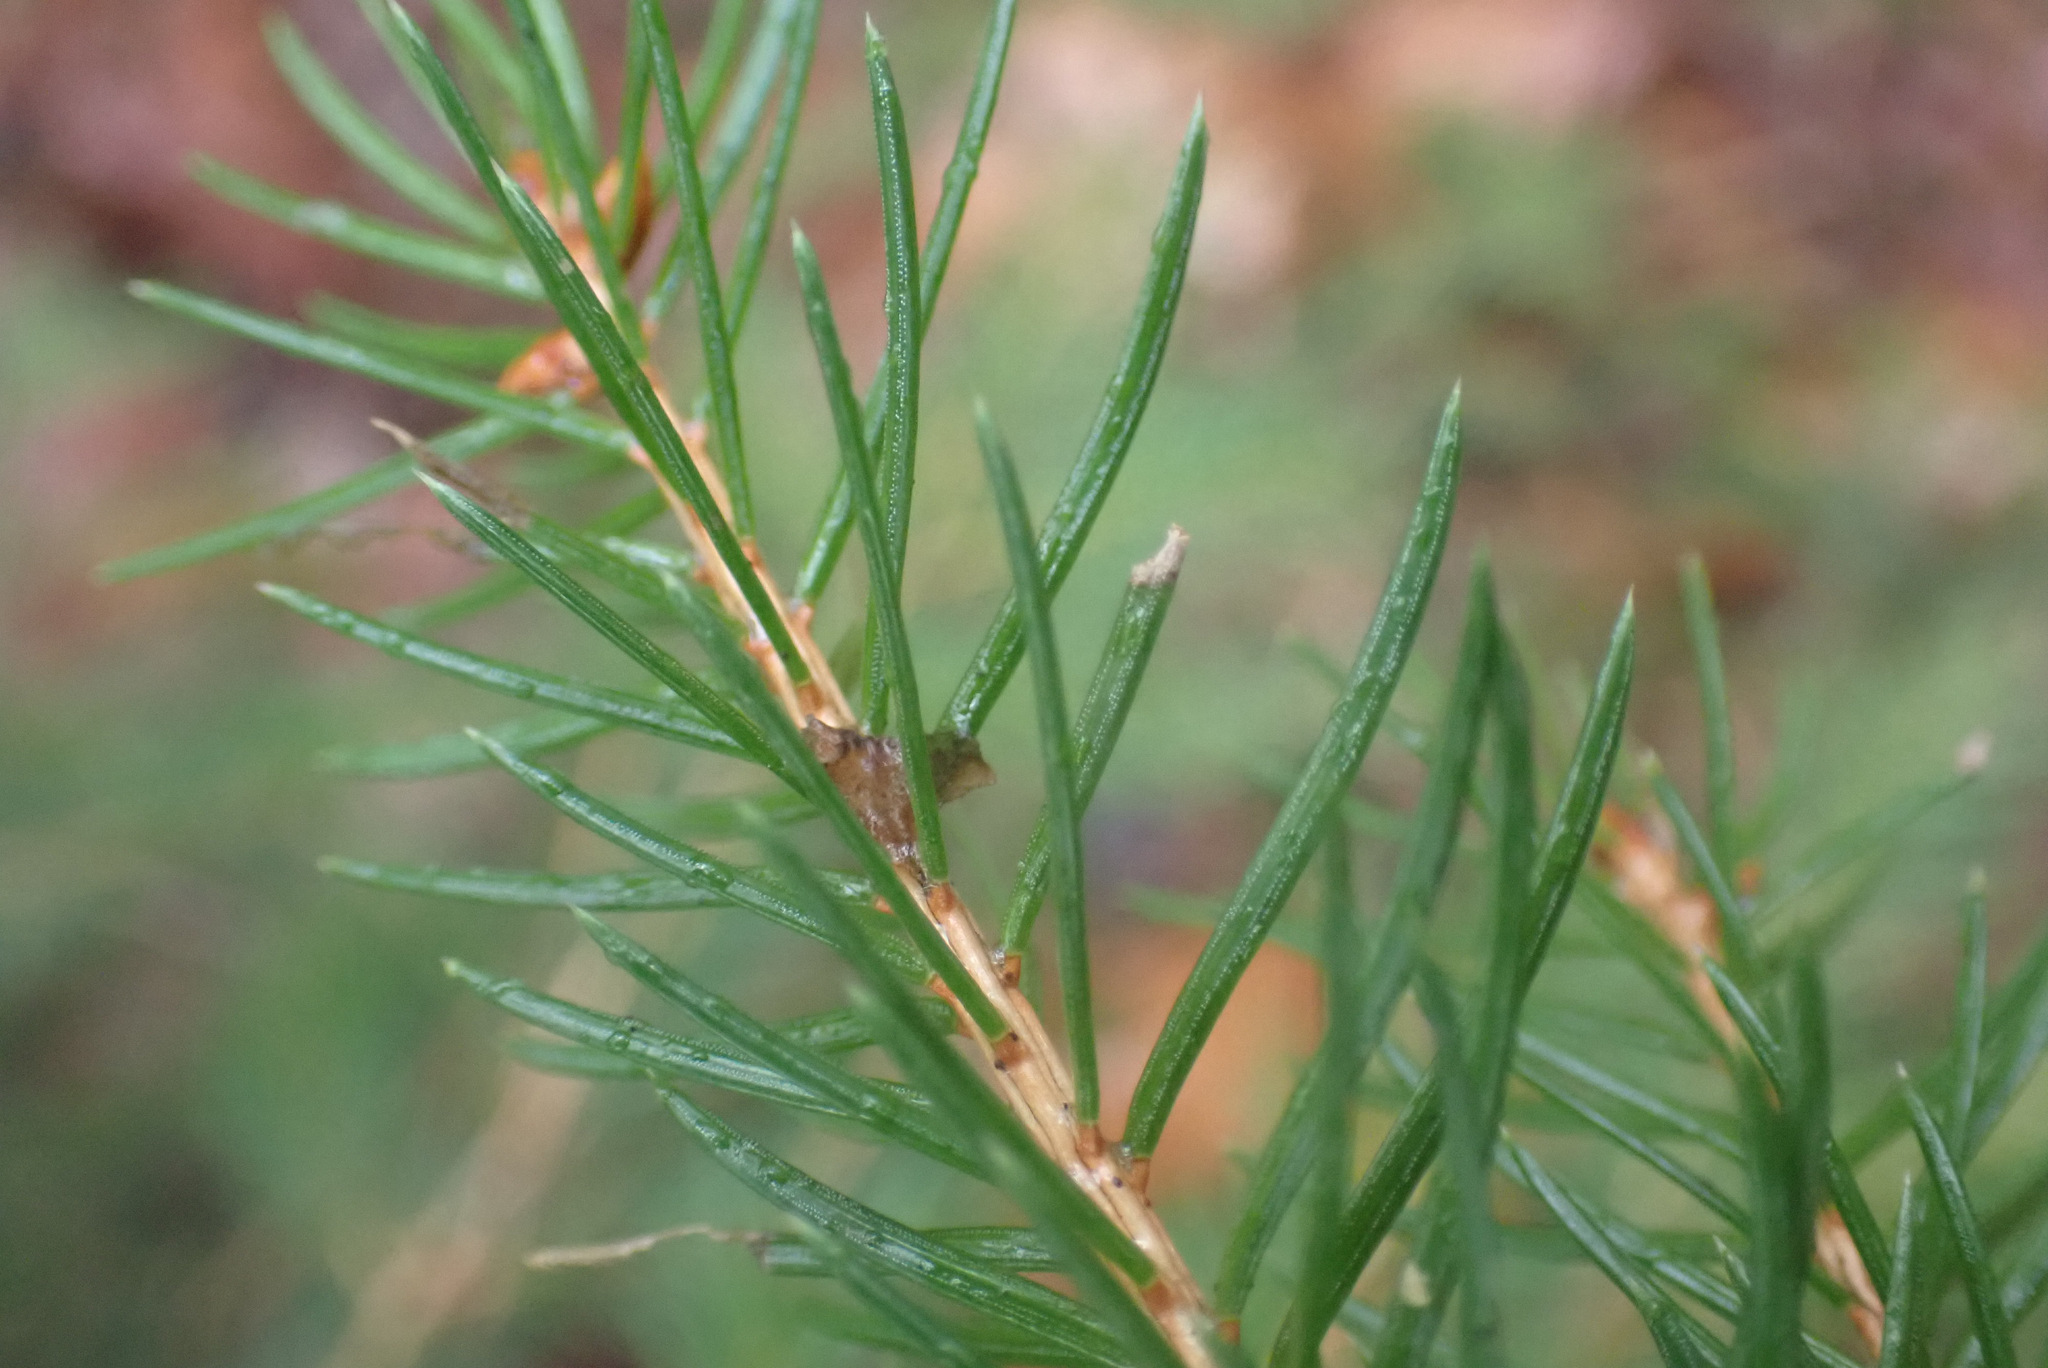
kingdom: Plantae
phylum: Tracheophyta
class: Pinopsida
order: Pinales
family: Pinaceae
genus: Picea
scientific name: Picea abies
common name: Norway spruce
